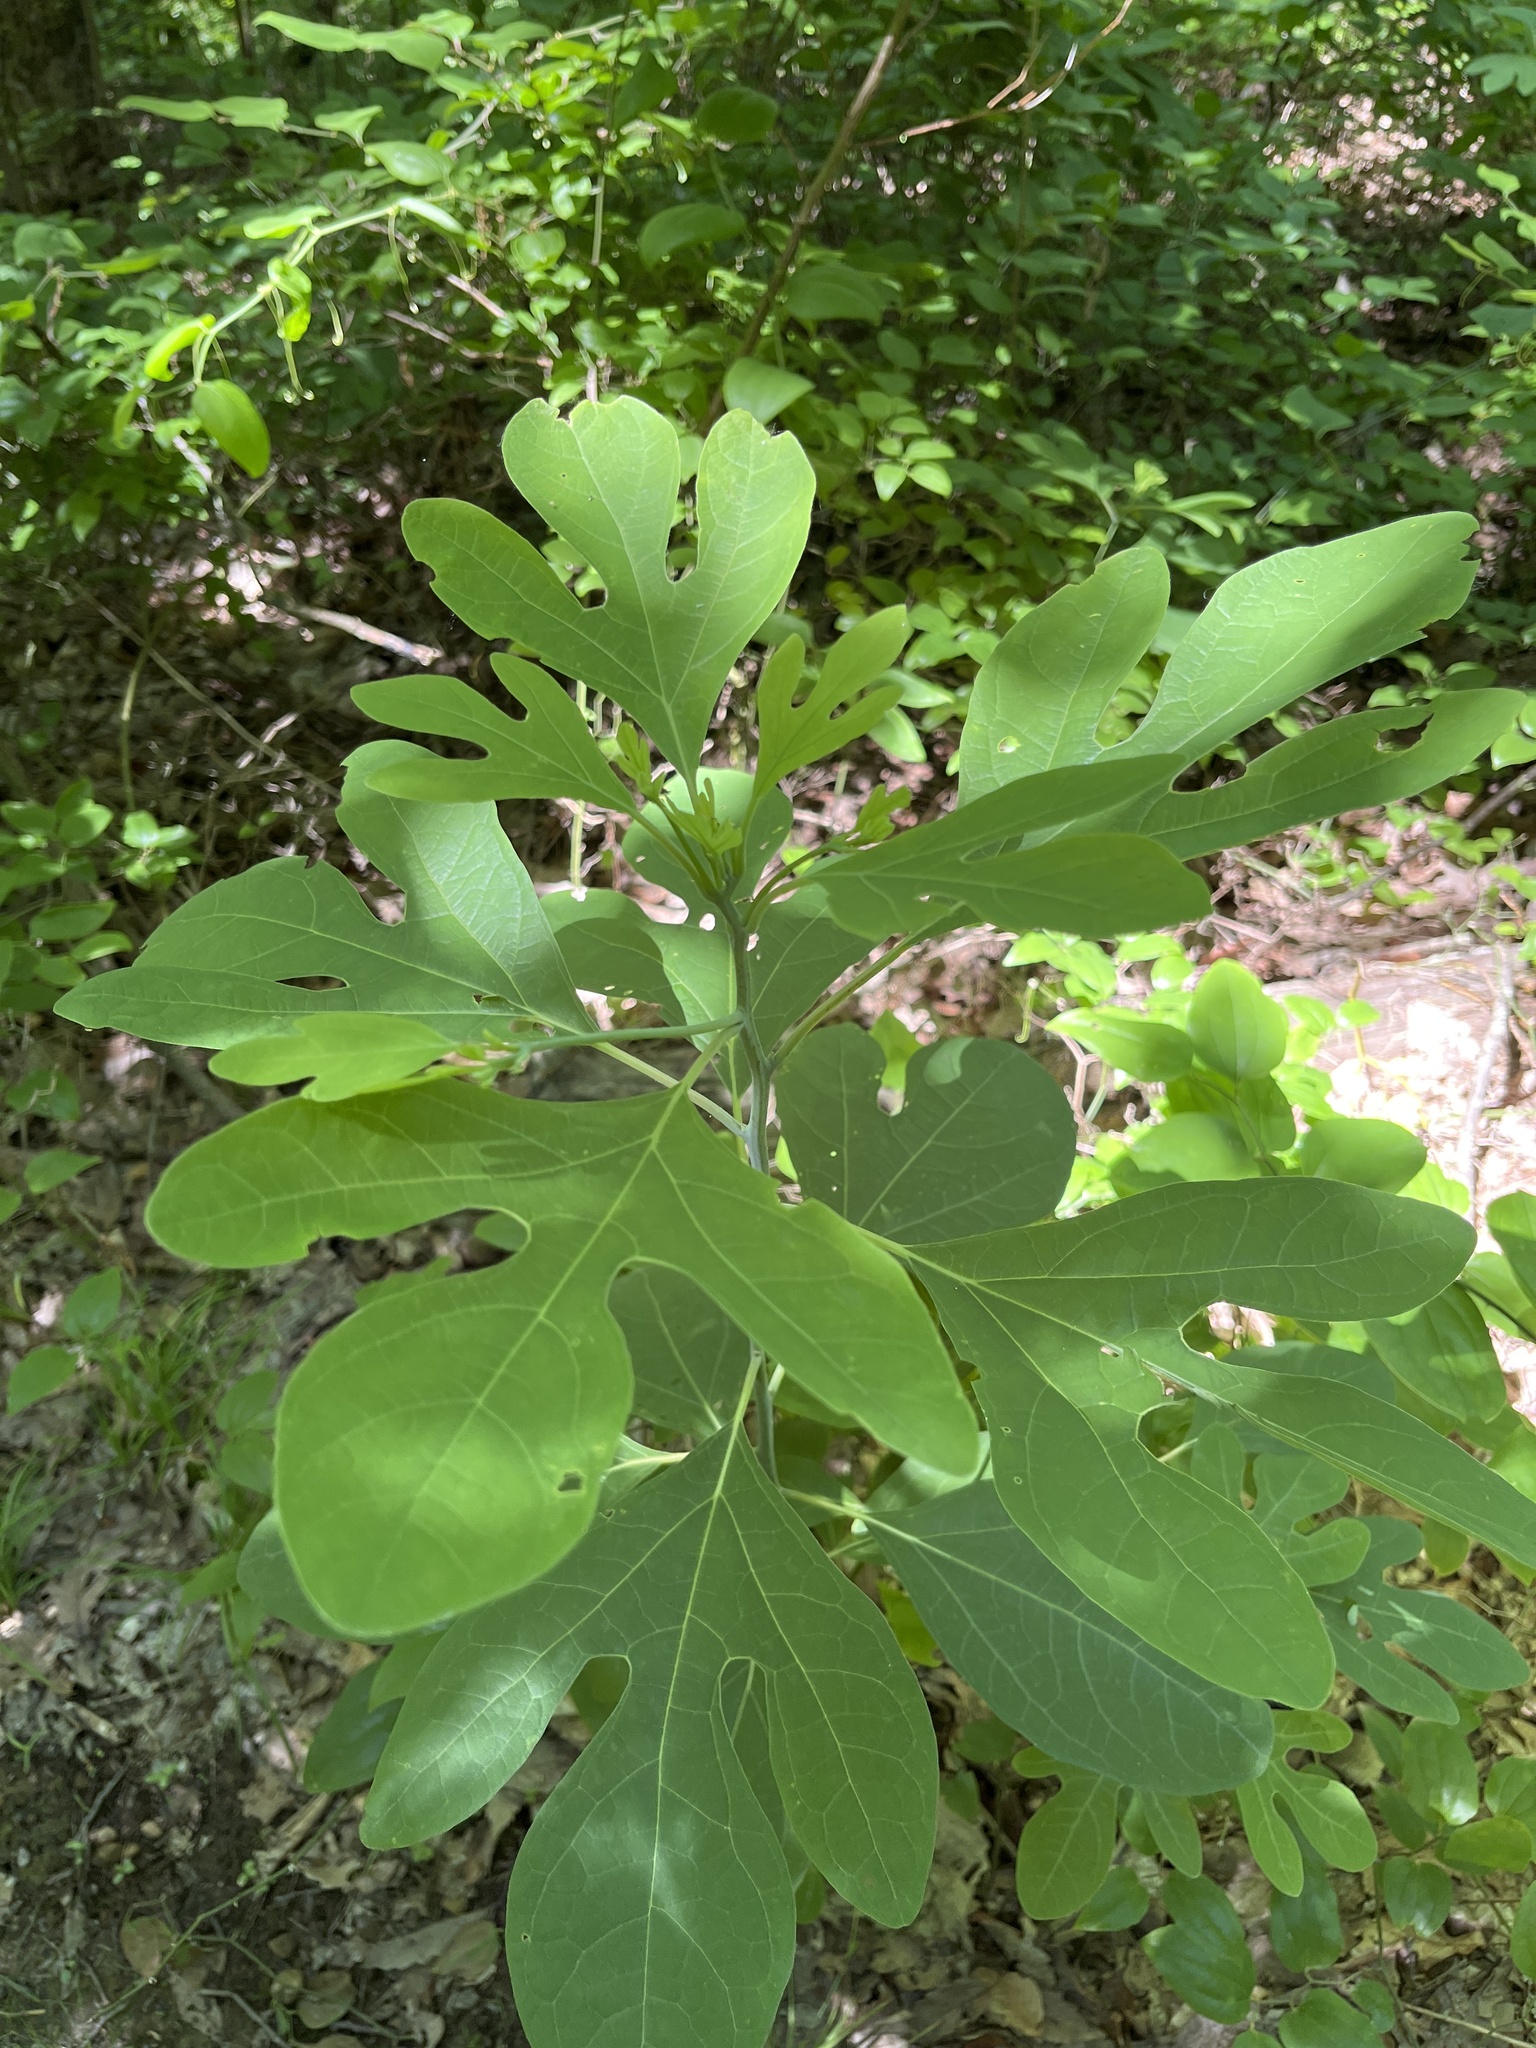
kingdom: Plantae
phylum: Tracheophyta
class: Magnoliopsida
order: Laurales
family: Lauraceae
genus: Sassafras
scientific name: Sassafras albidum
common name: Sassafras
